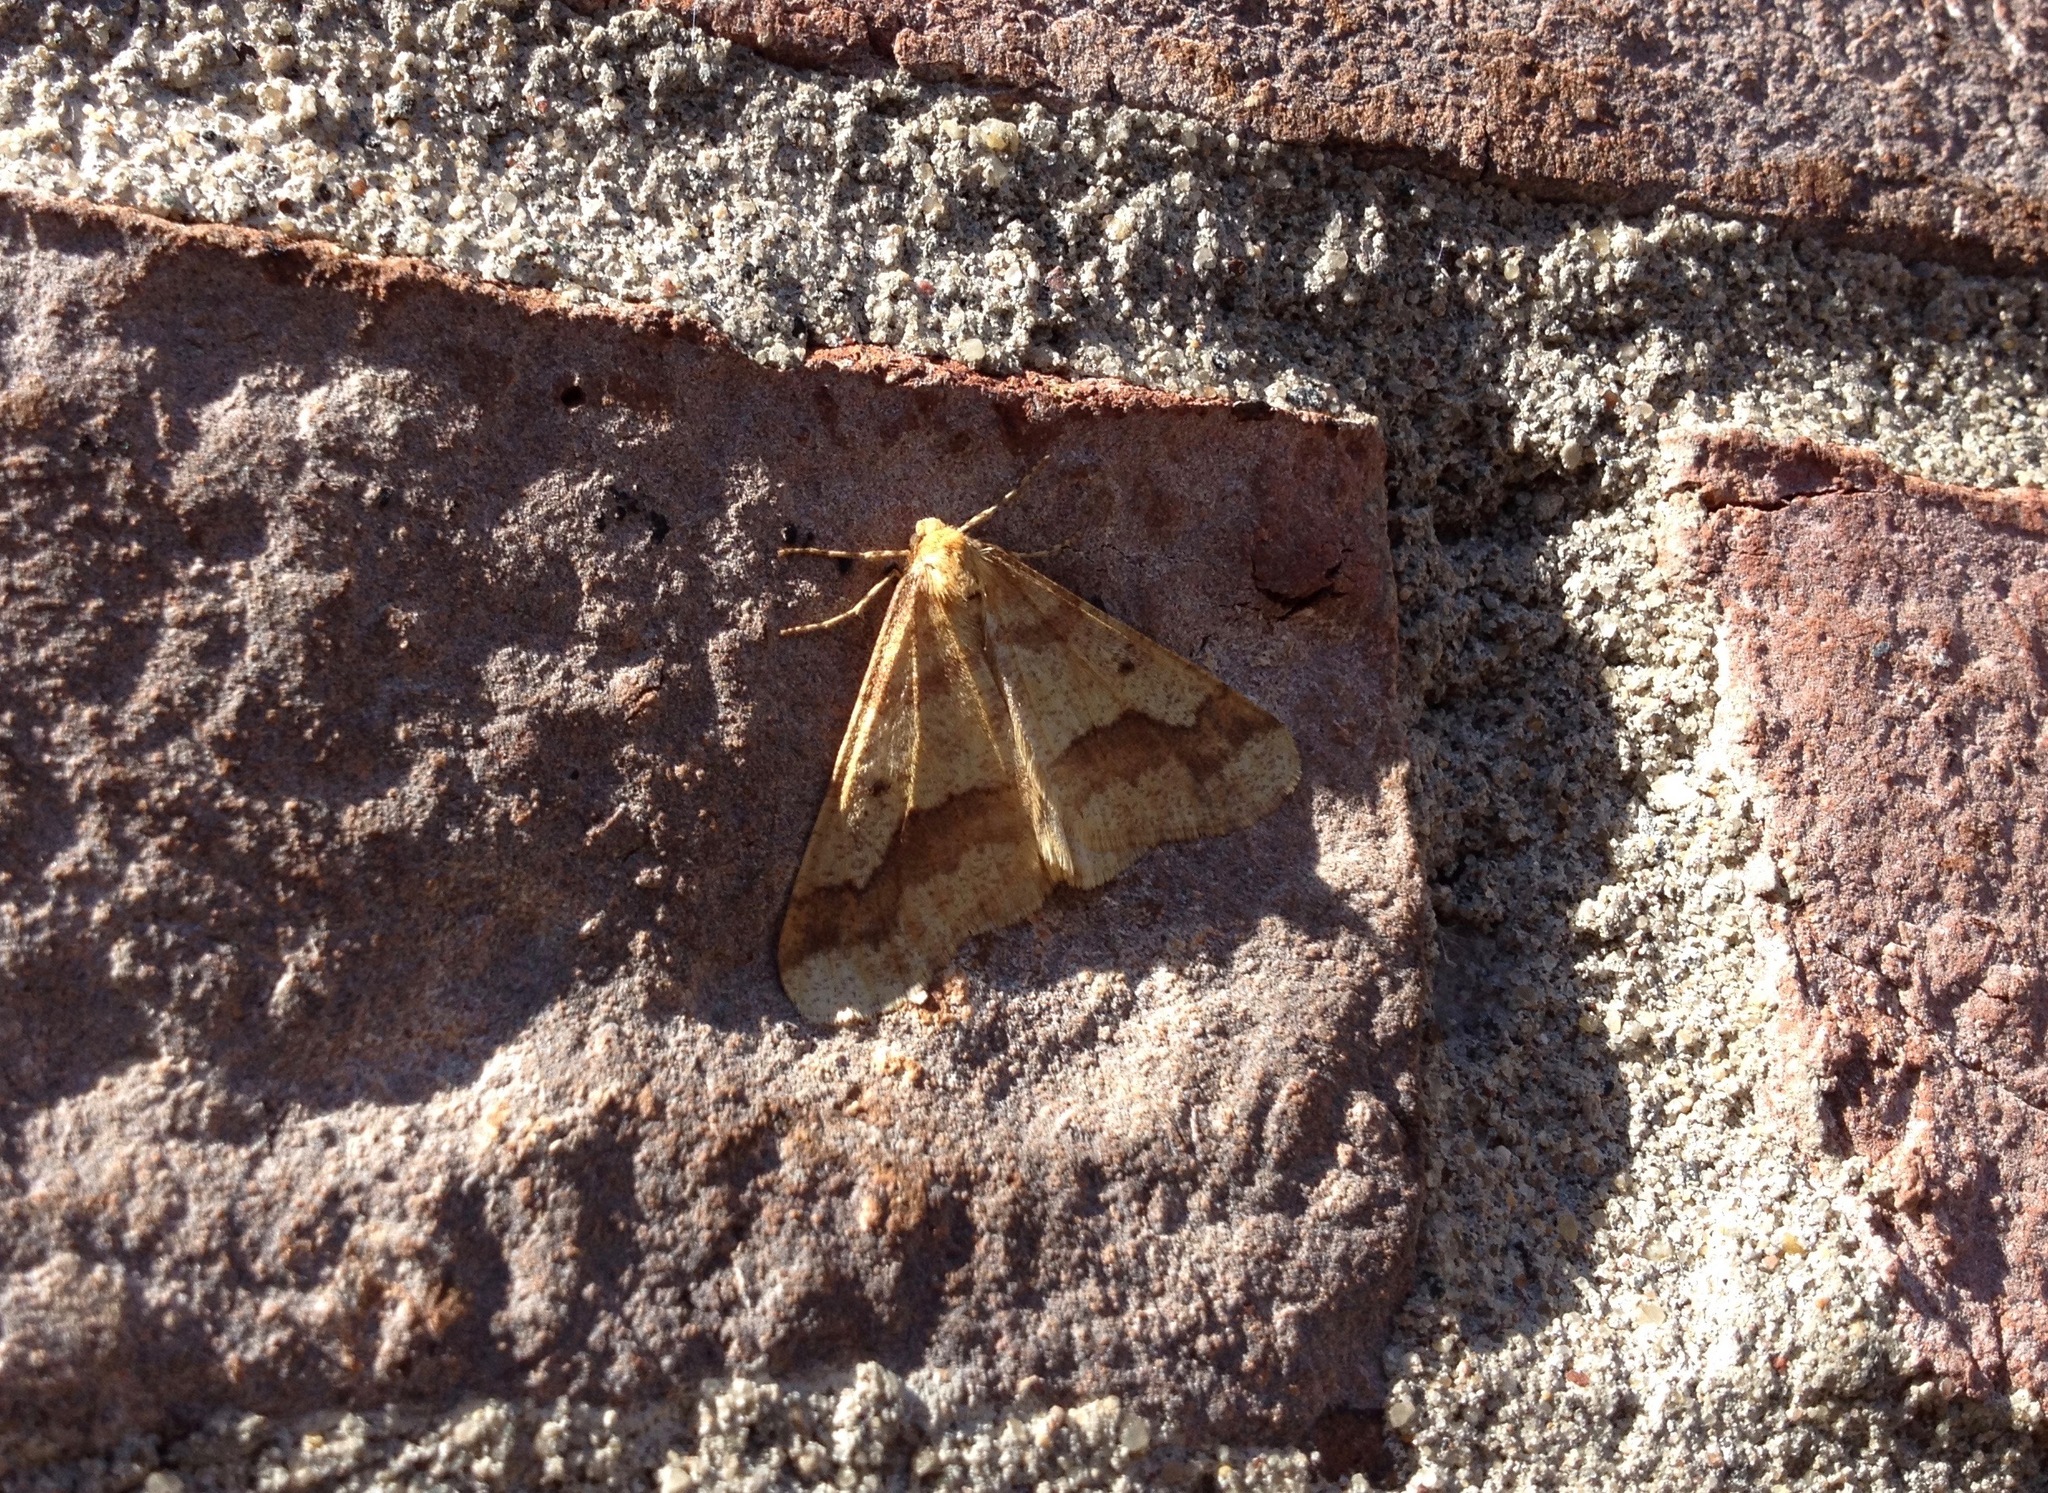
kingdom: Animalia
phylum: Arthropoda
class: Insecta
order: Lepidoptera
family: Geometridae
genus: Erannis
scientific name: Erannis tiliaria
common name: Linden looper
